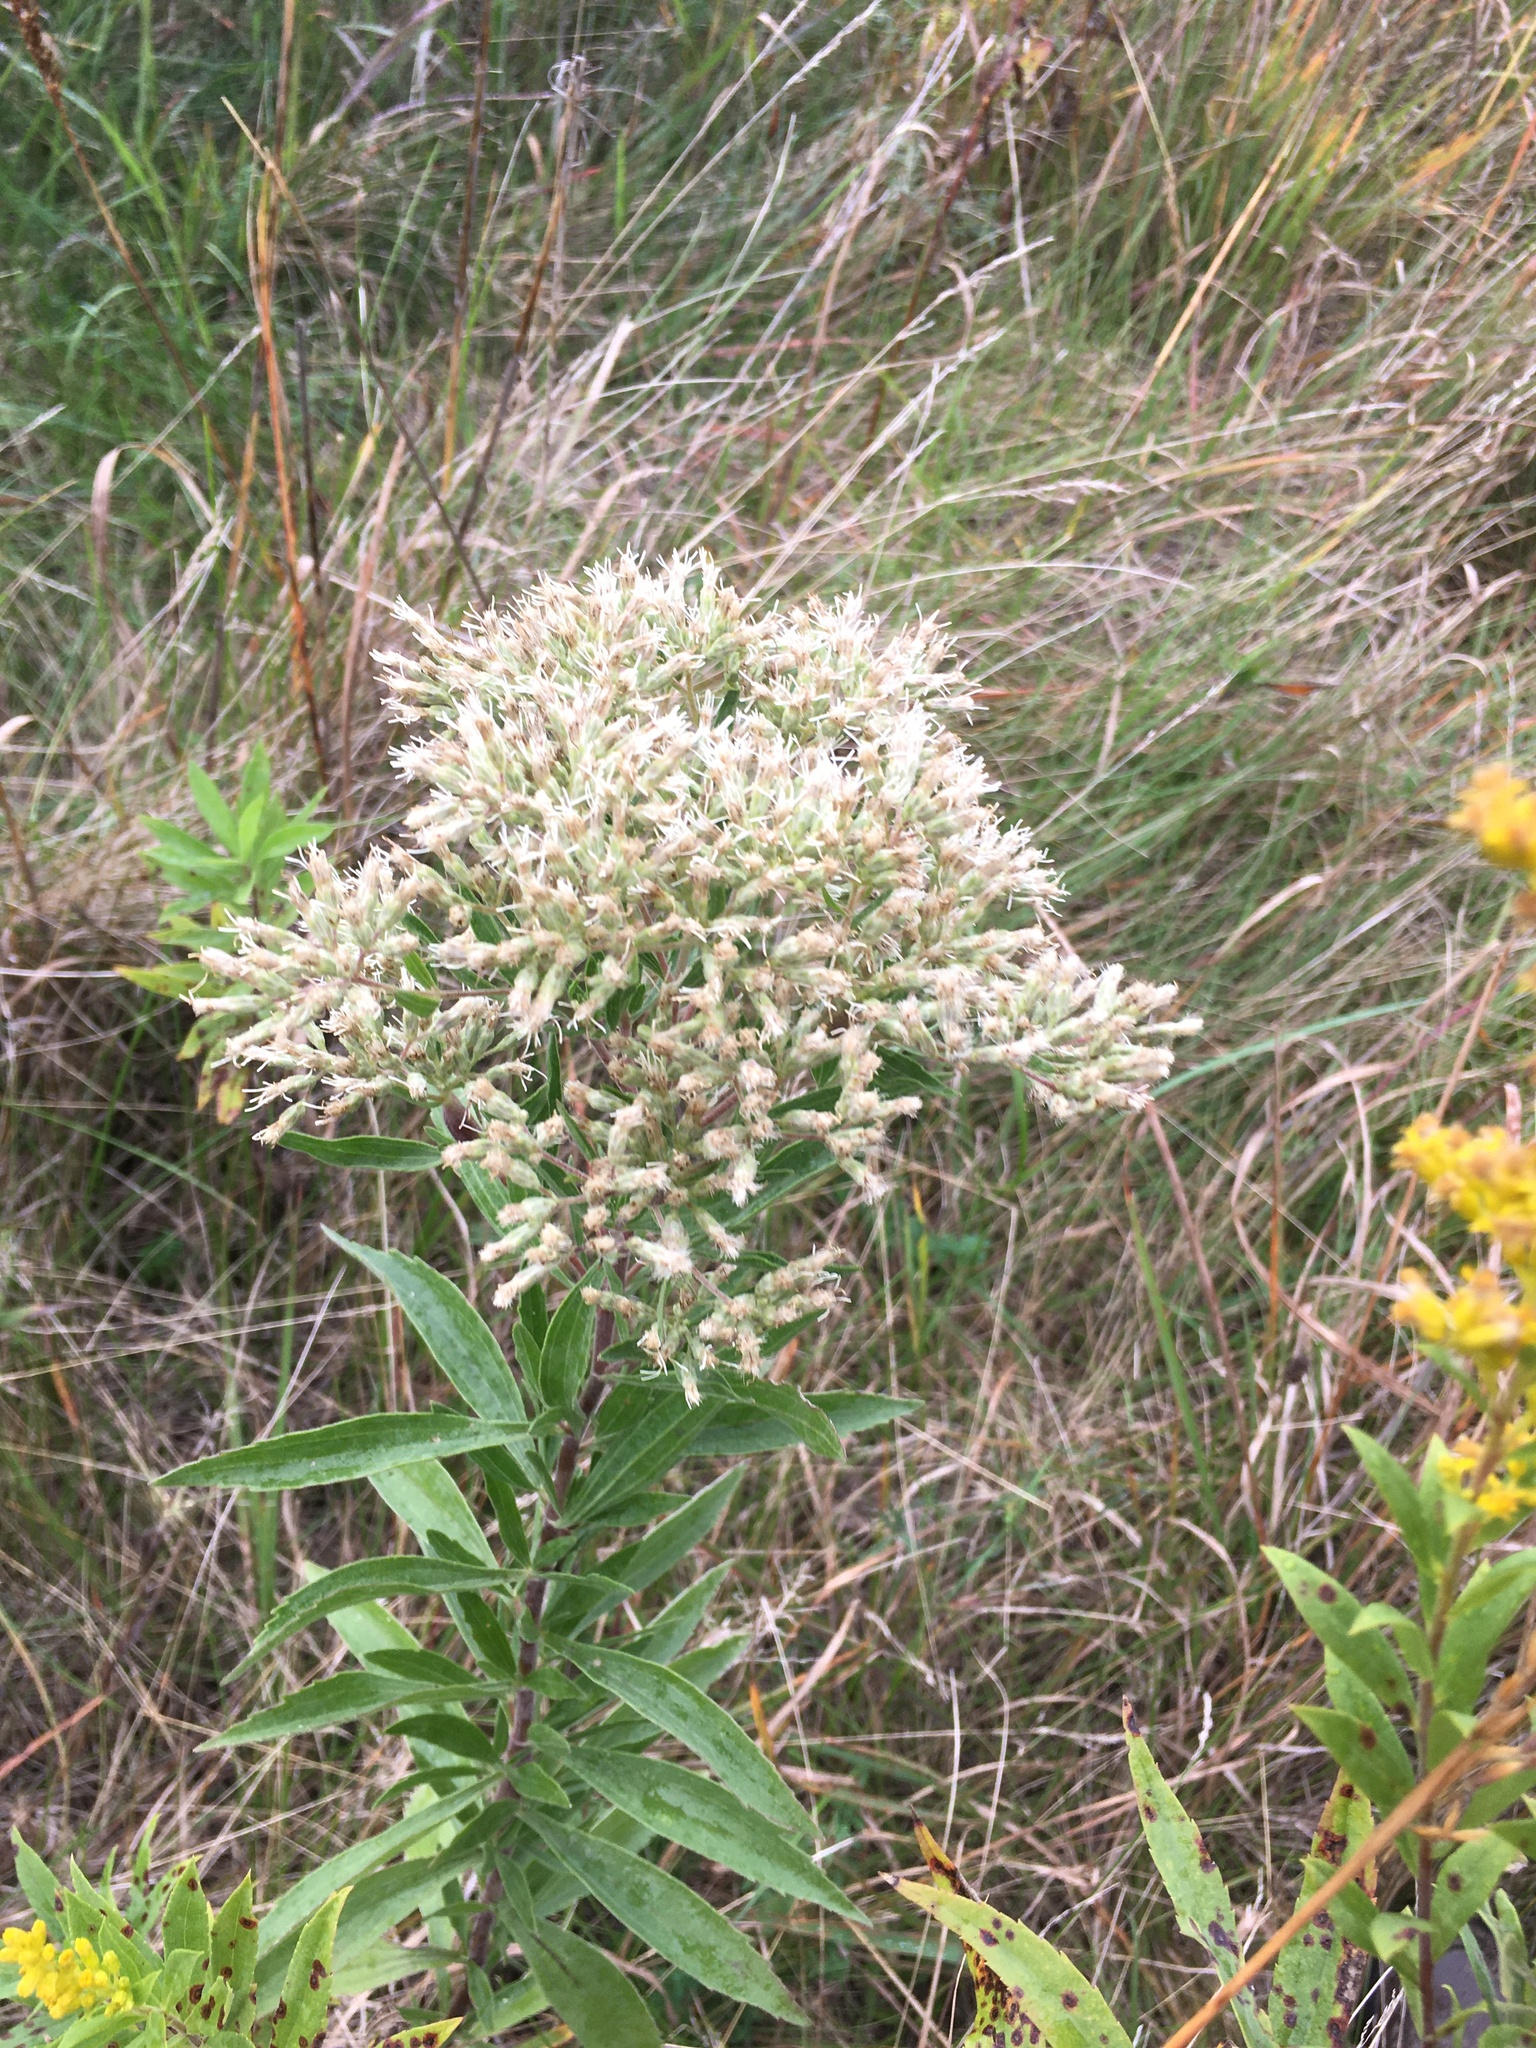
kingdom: Plantae
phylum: Tracheophyta
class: Magnoliopsida
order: Asterales
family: Asteraceae
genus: Eupatorium
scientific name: Eupatorium altissimum
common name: Tall thoroughwort
